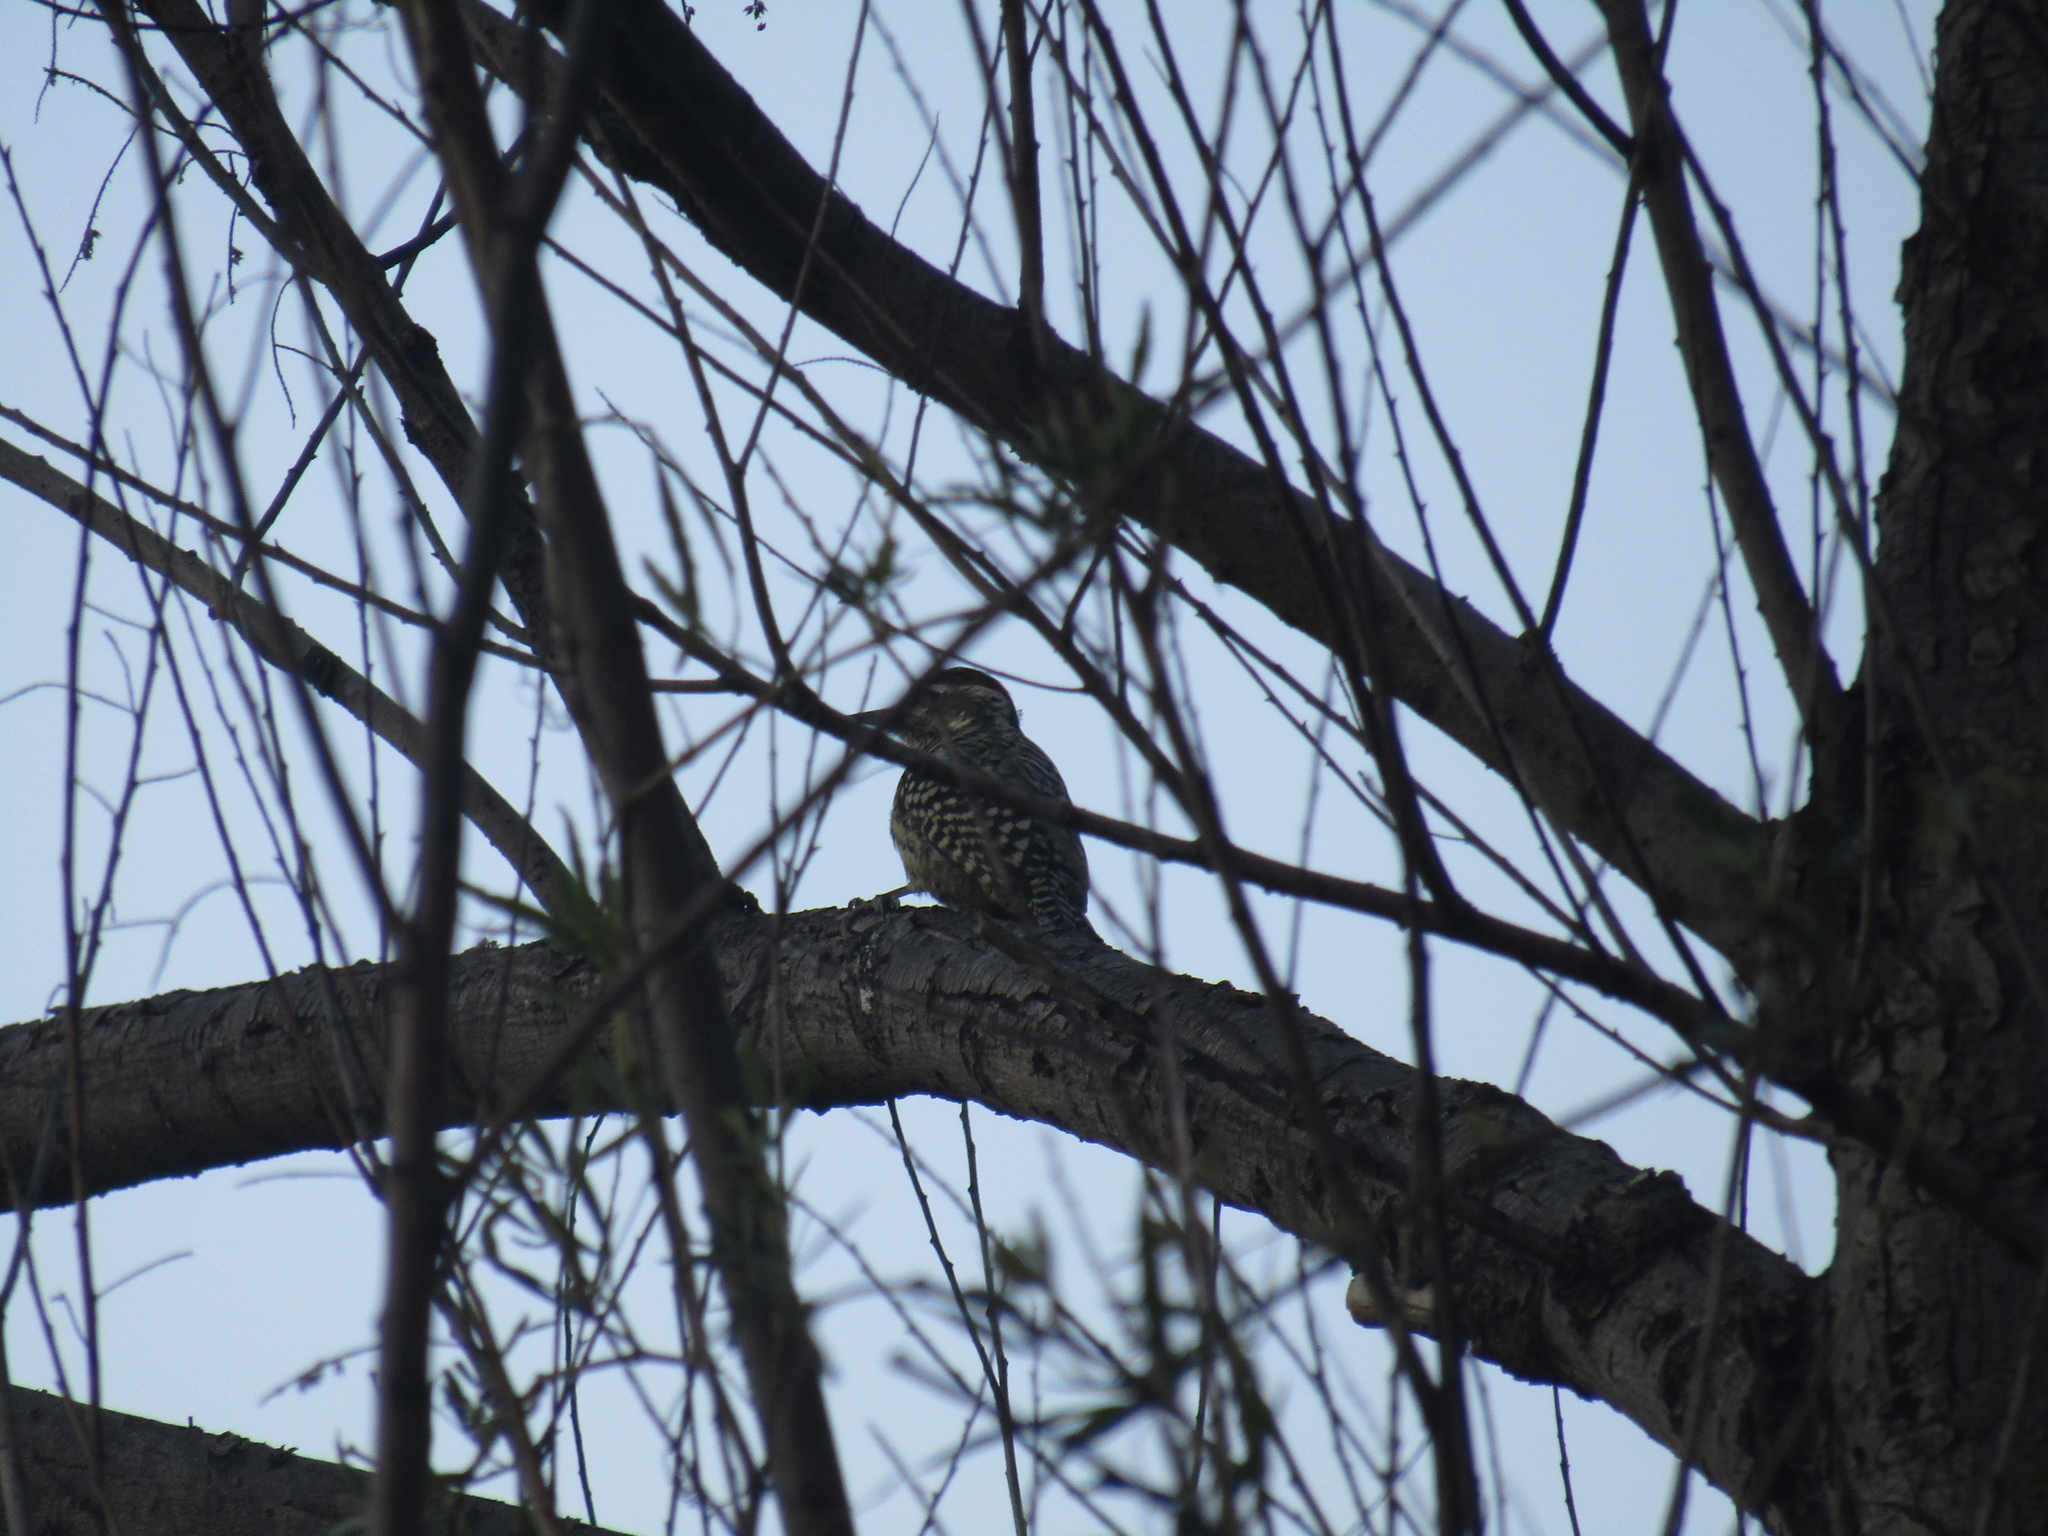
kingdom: Animalia
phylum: Chordata
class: Aves
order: Piciformes
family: Picidae
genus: Veniliornis
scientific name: Veniliornis mixtus
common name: Checkered woodpecker
